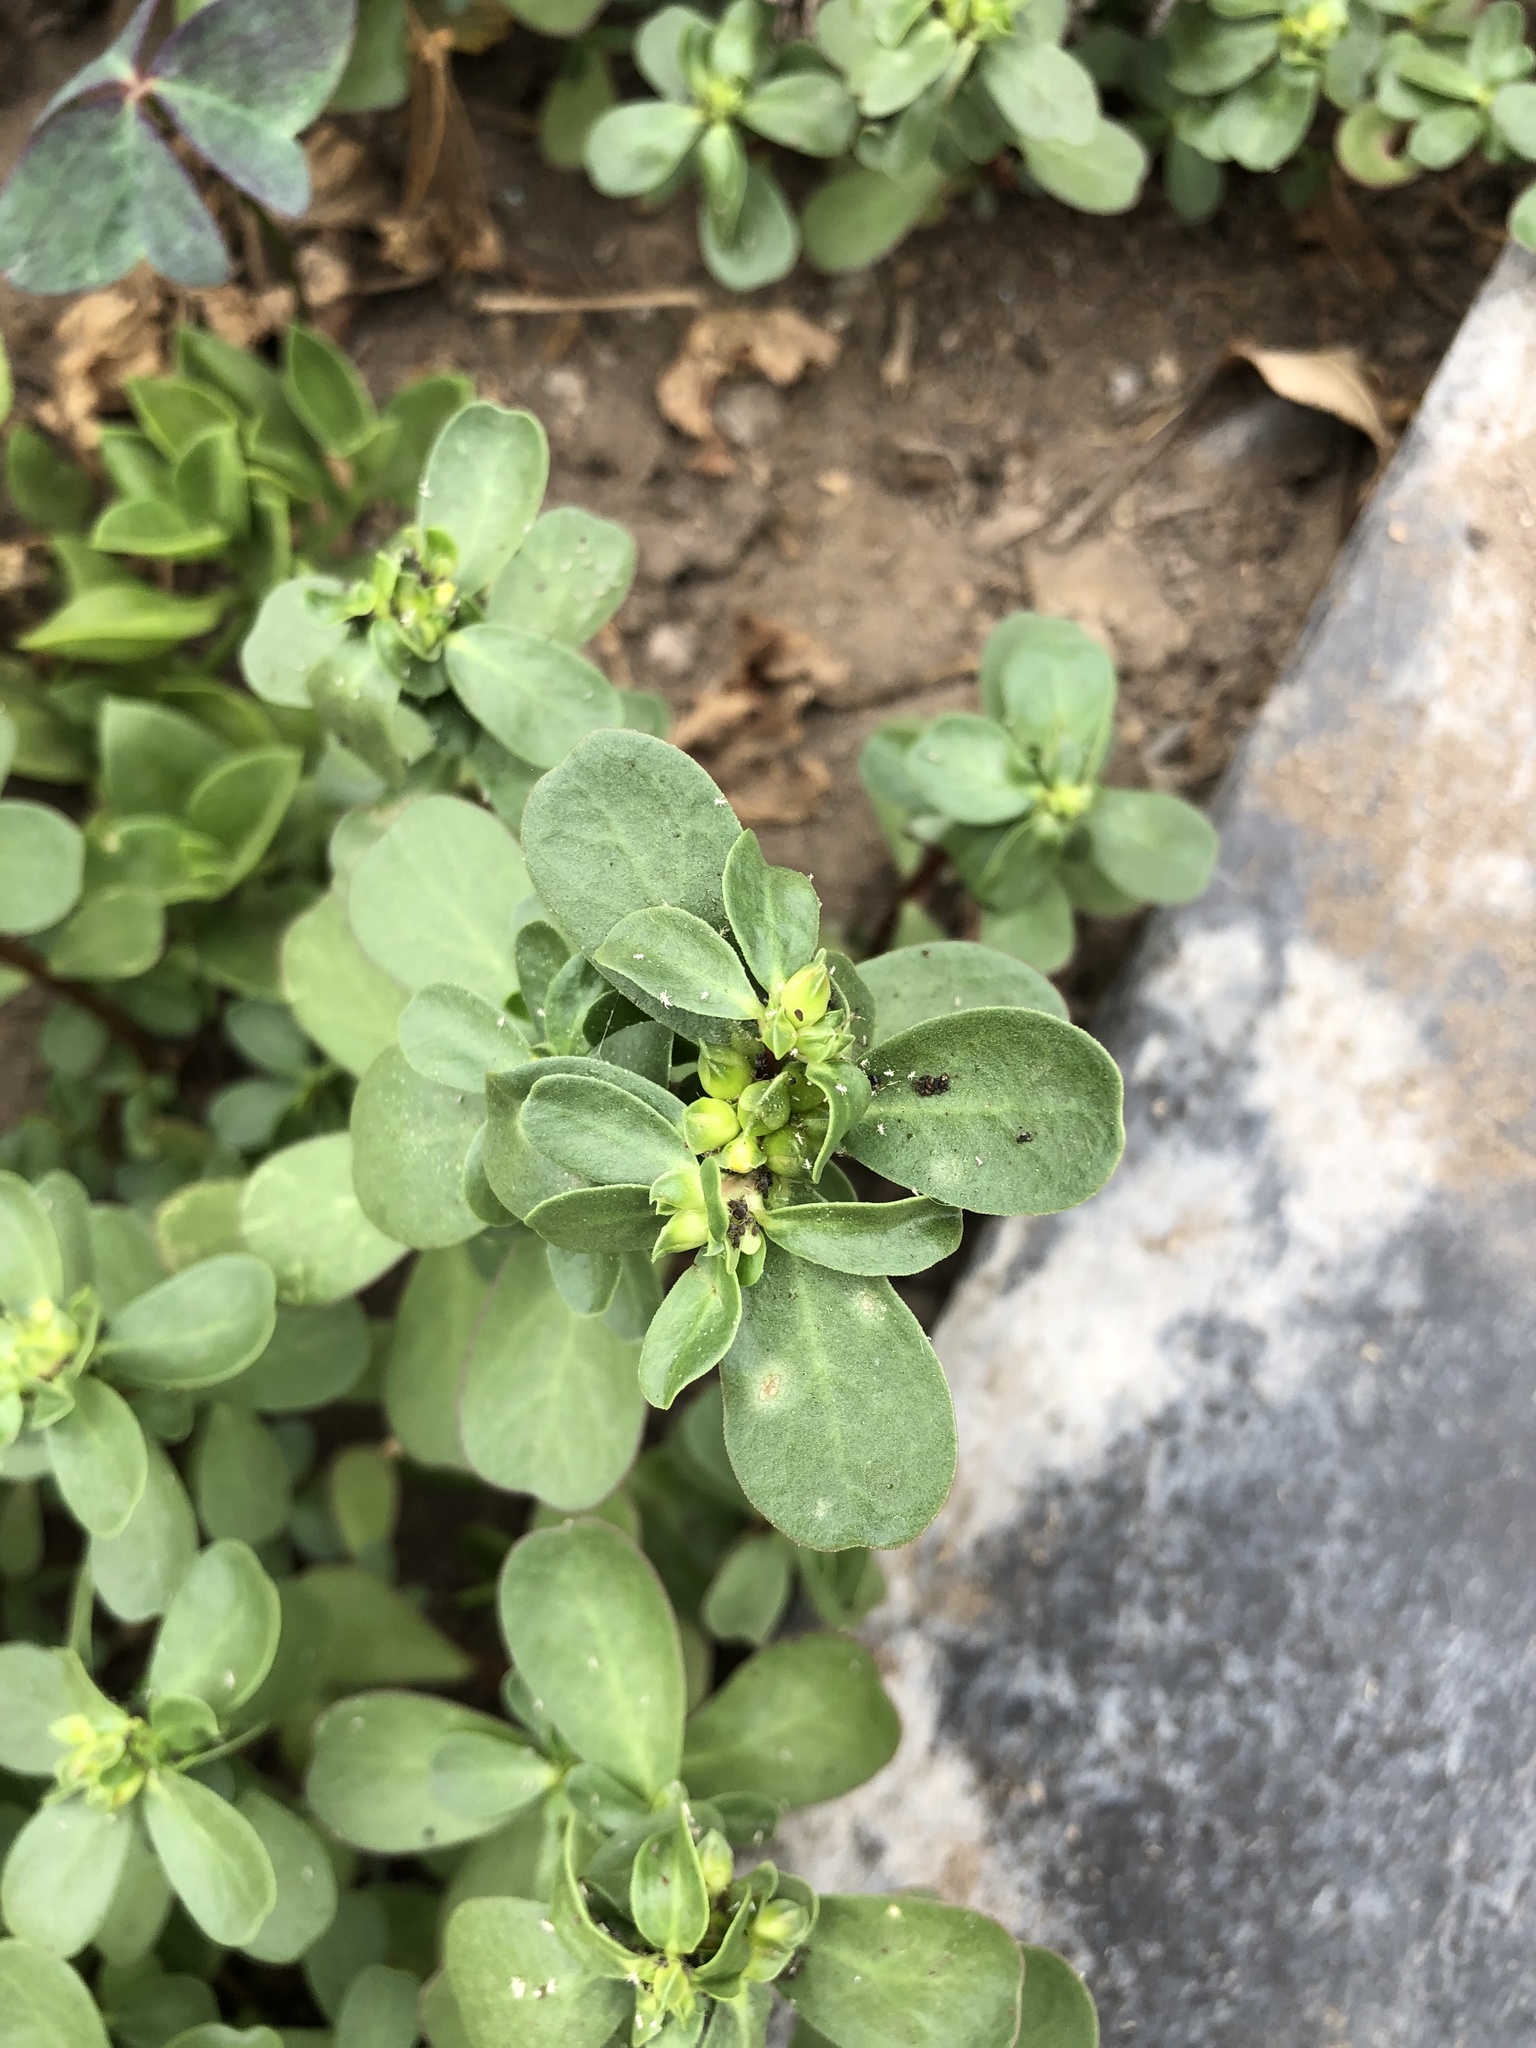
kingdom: Plantae
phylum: Tracheophyta
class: Magnoliopsida
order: Caryophyllales
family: Portulacaceae
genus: Portulaca
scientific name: Portulaca oleracea
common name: Common purslane
